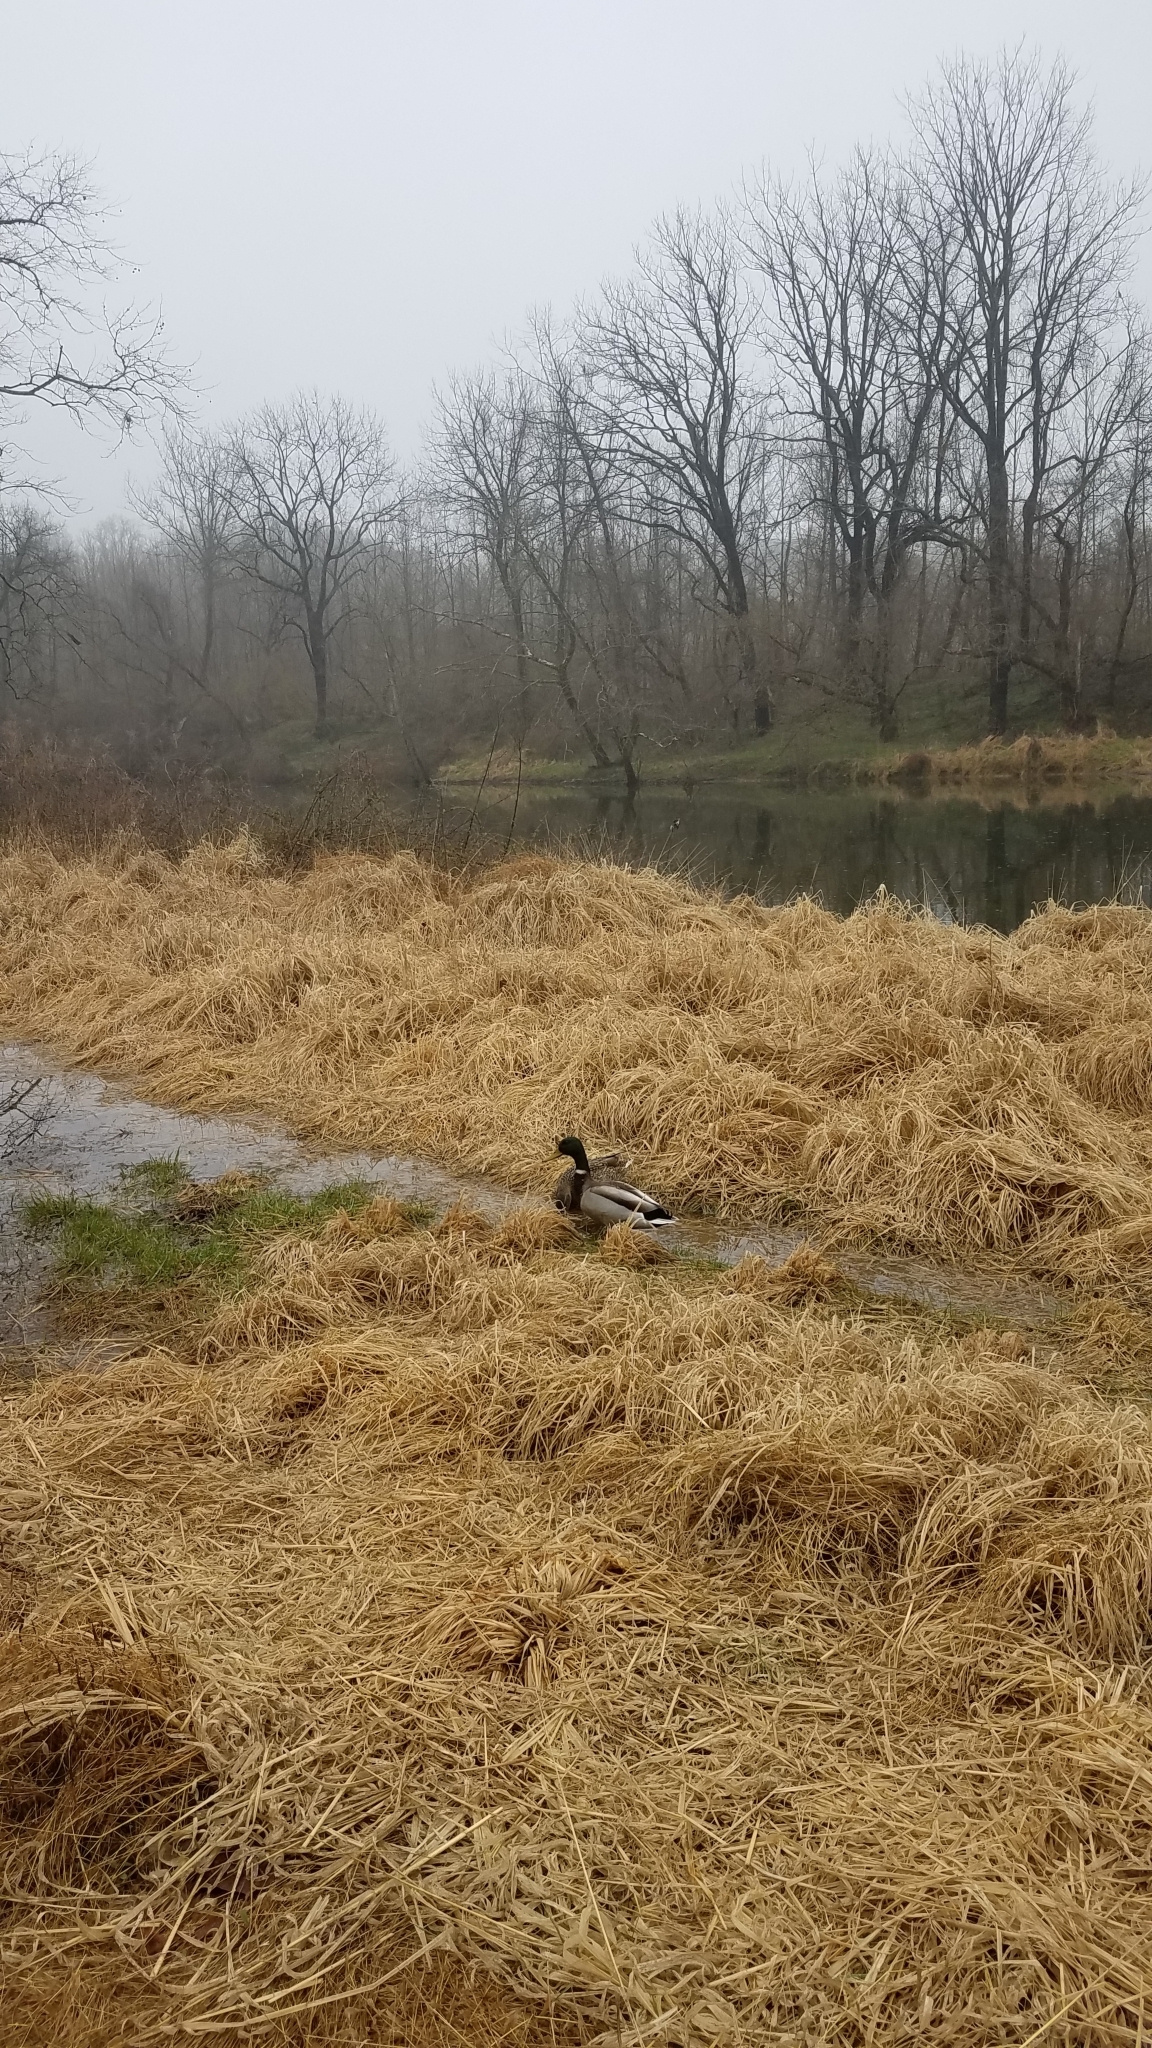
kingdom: Animalia
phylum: Chordata
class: Aves
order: Anseriformes
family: Anatidae
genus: Anas
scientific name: Anas platyrhynchos
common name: Mallard
